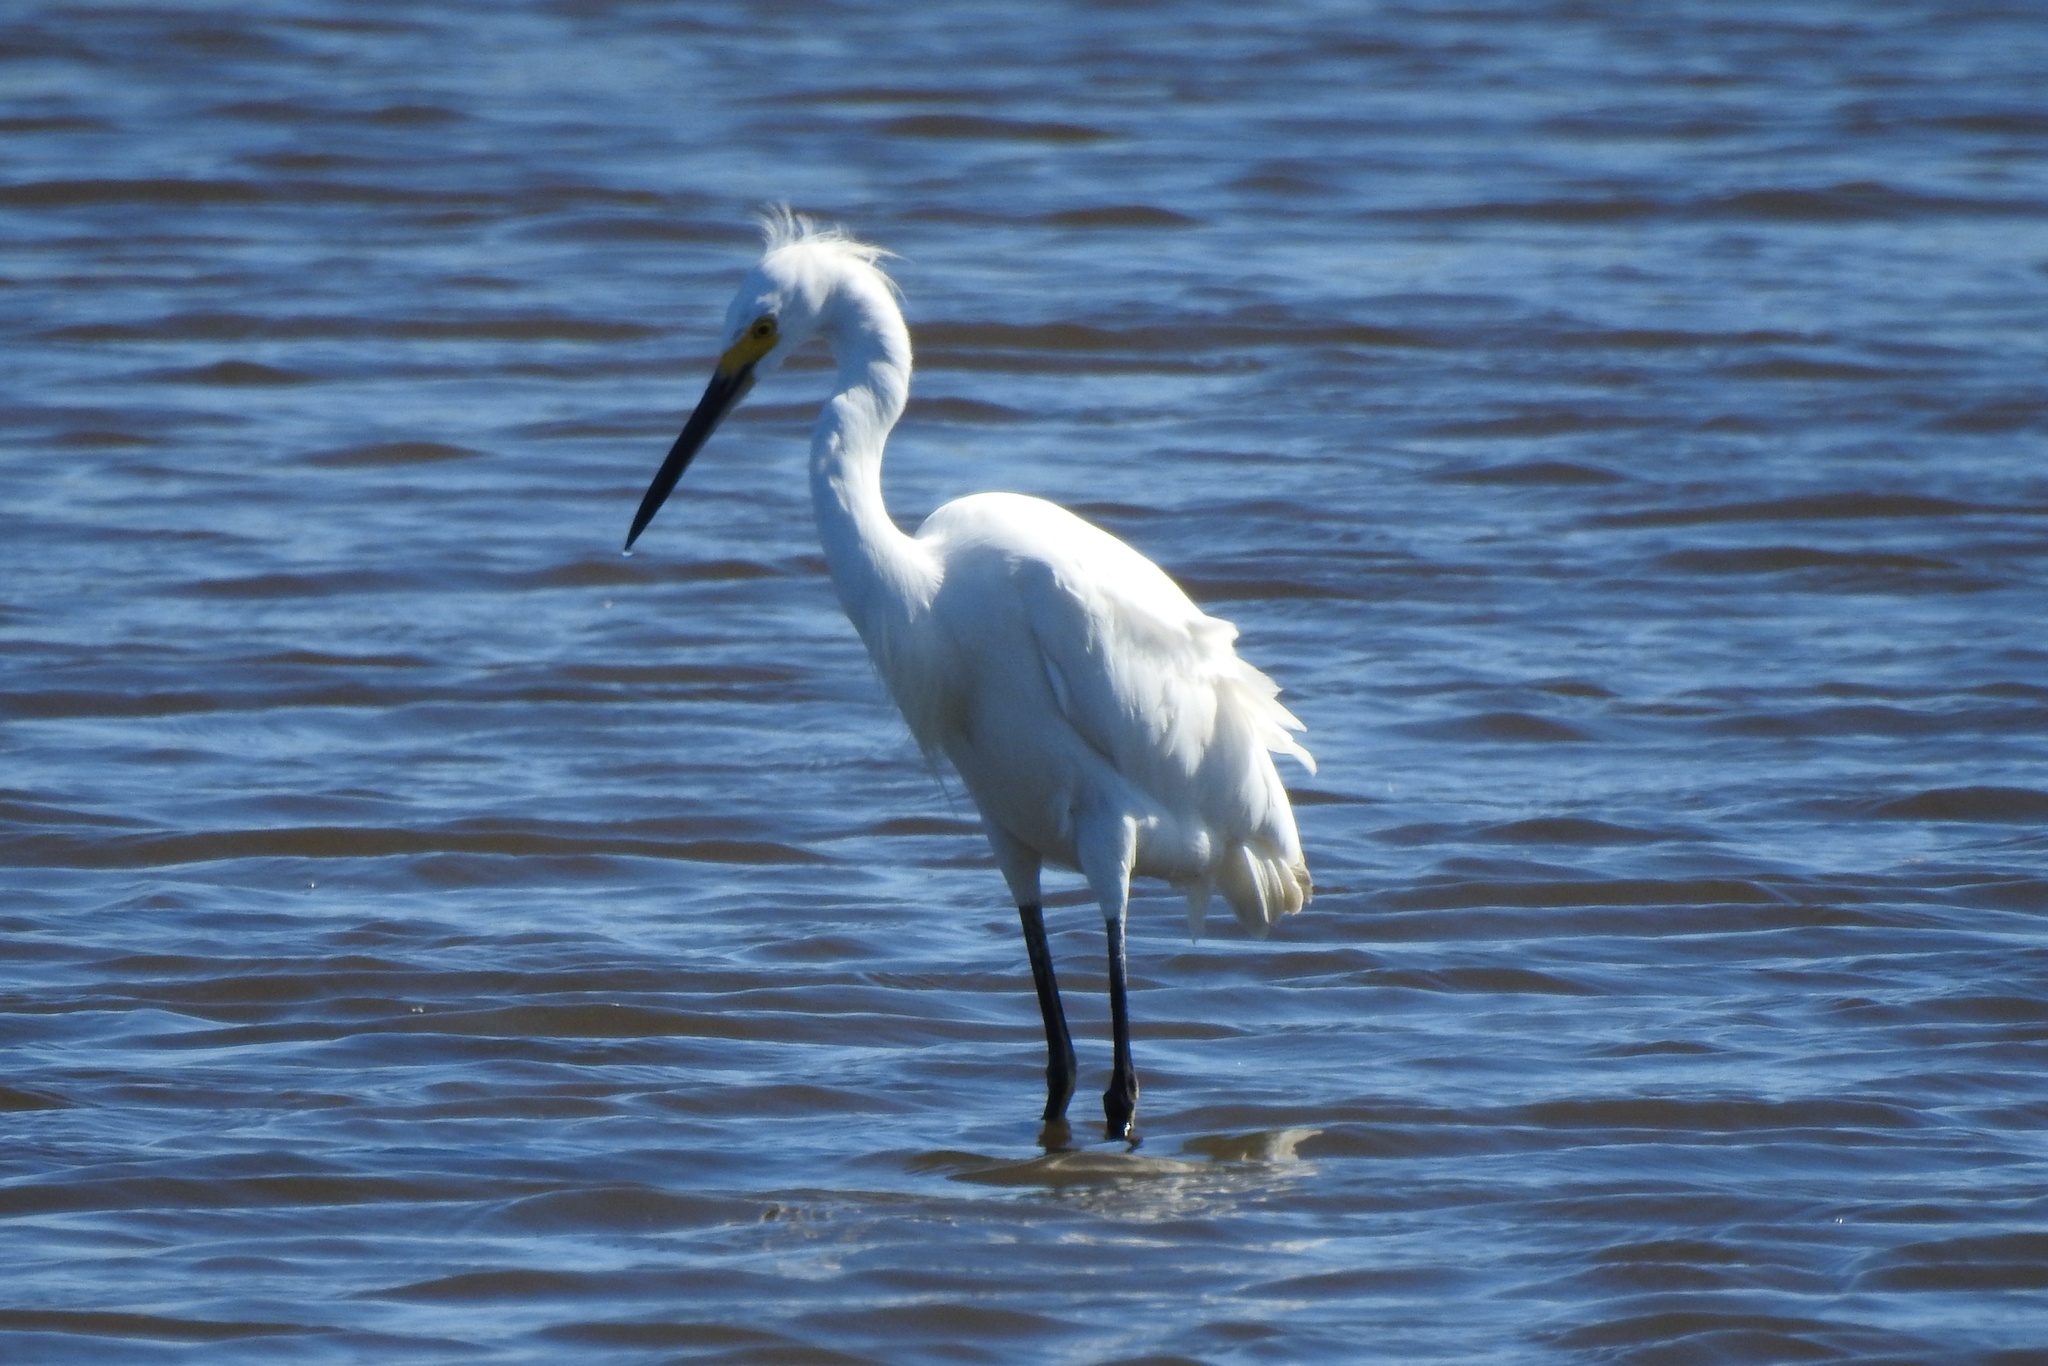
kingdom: Animalia
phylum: Chordata
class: Aves
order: Pelecaniformes
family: Ardeidae
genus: Egretta
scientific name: Egretta thula
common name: Snowy egret
